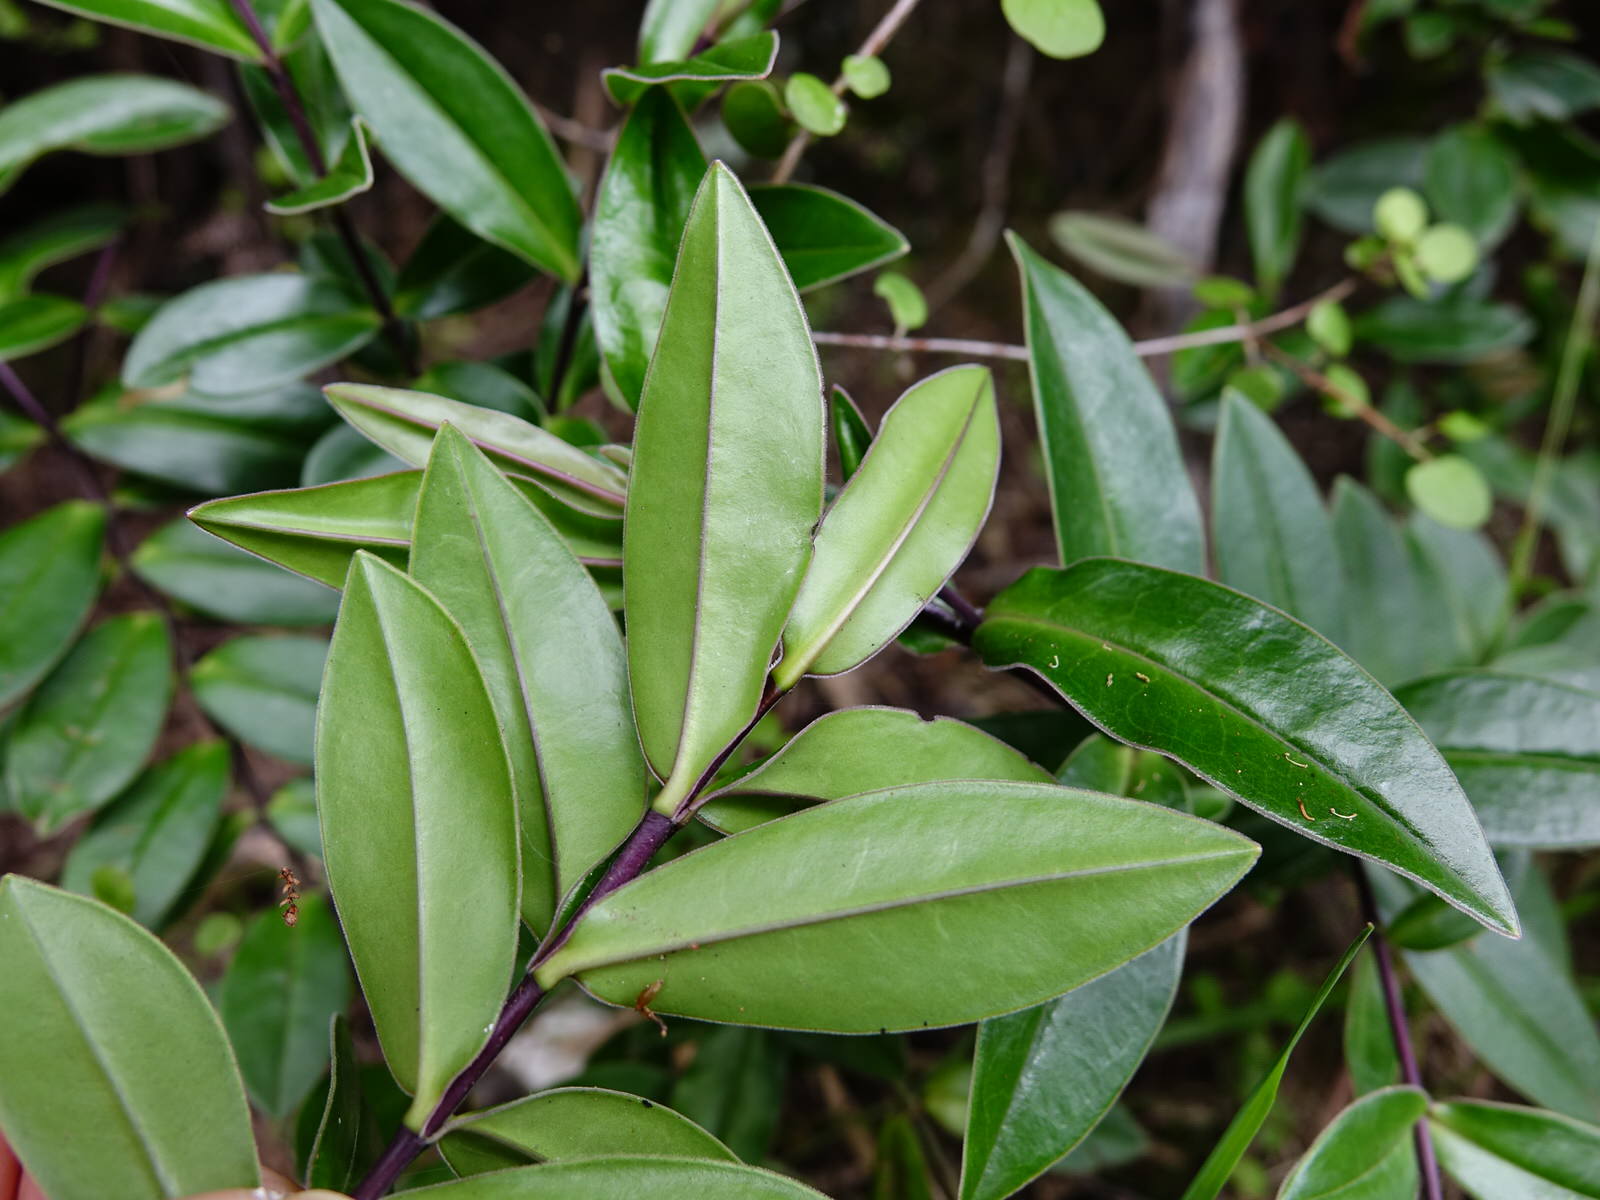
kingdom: Plantae
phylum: Tracheophyta
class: Magnoliopsida
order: Lamiales
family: Plantaginaceae
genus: Veronica
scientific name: Veronica bishopiana
